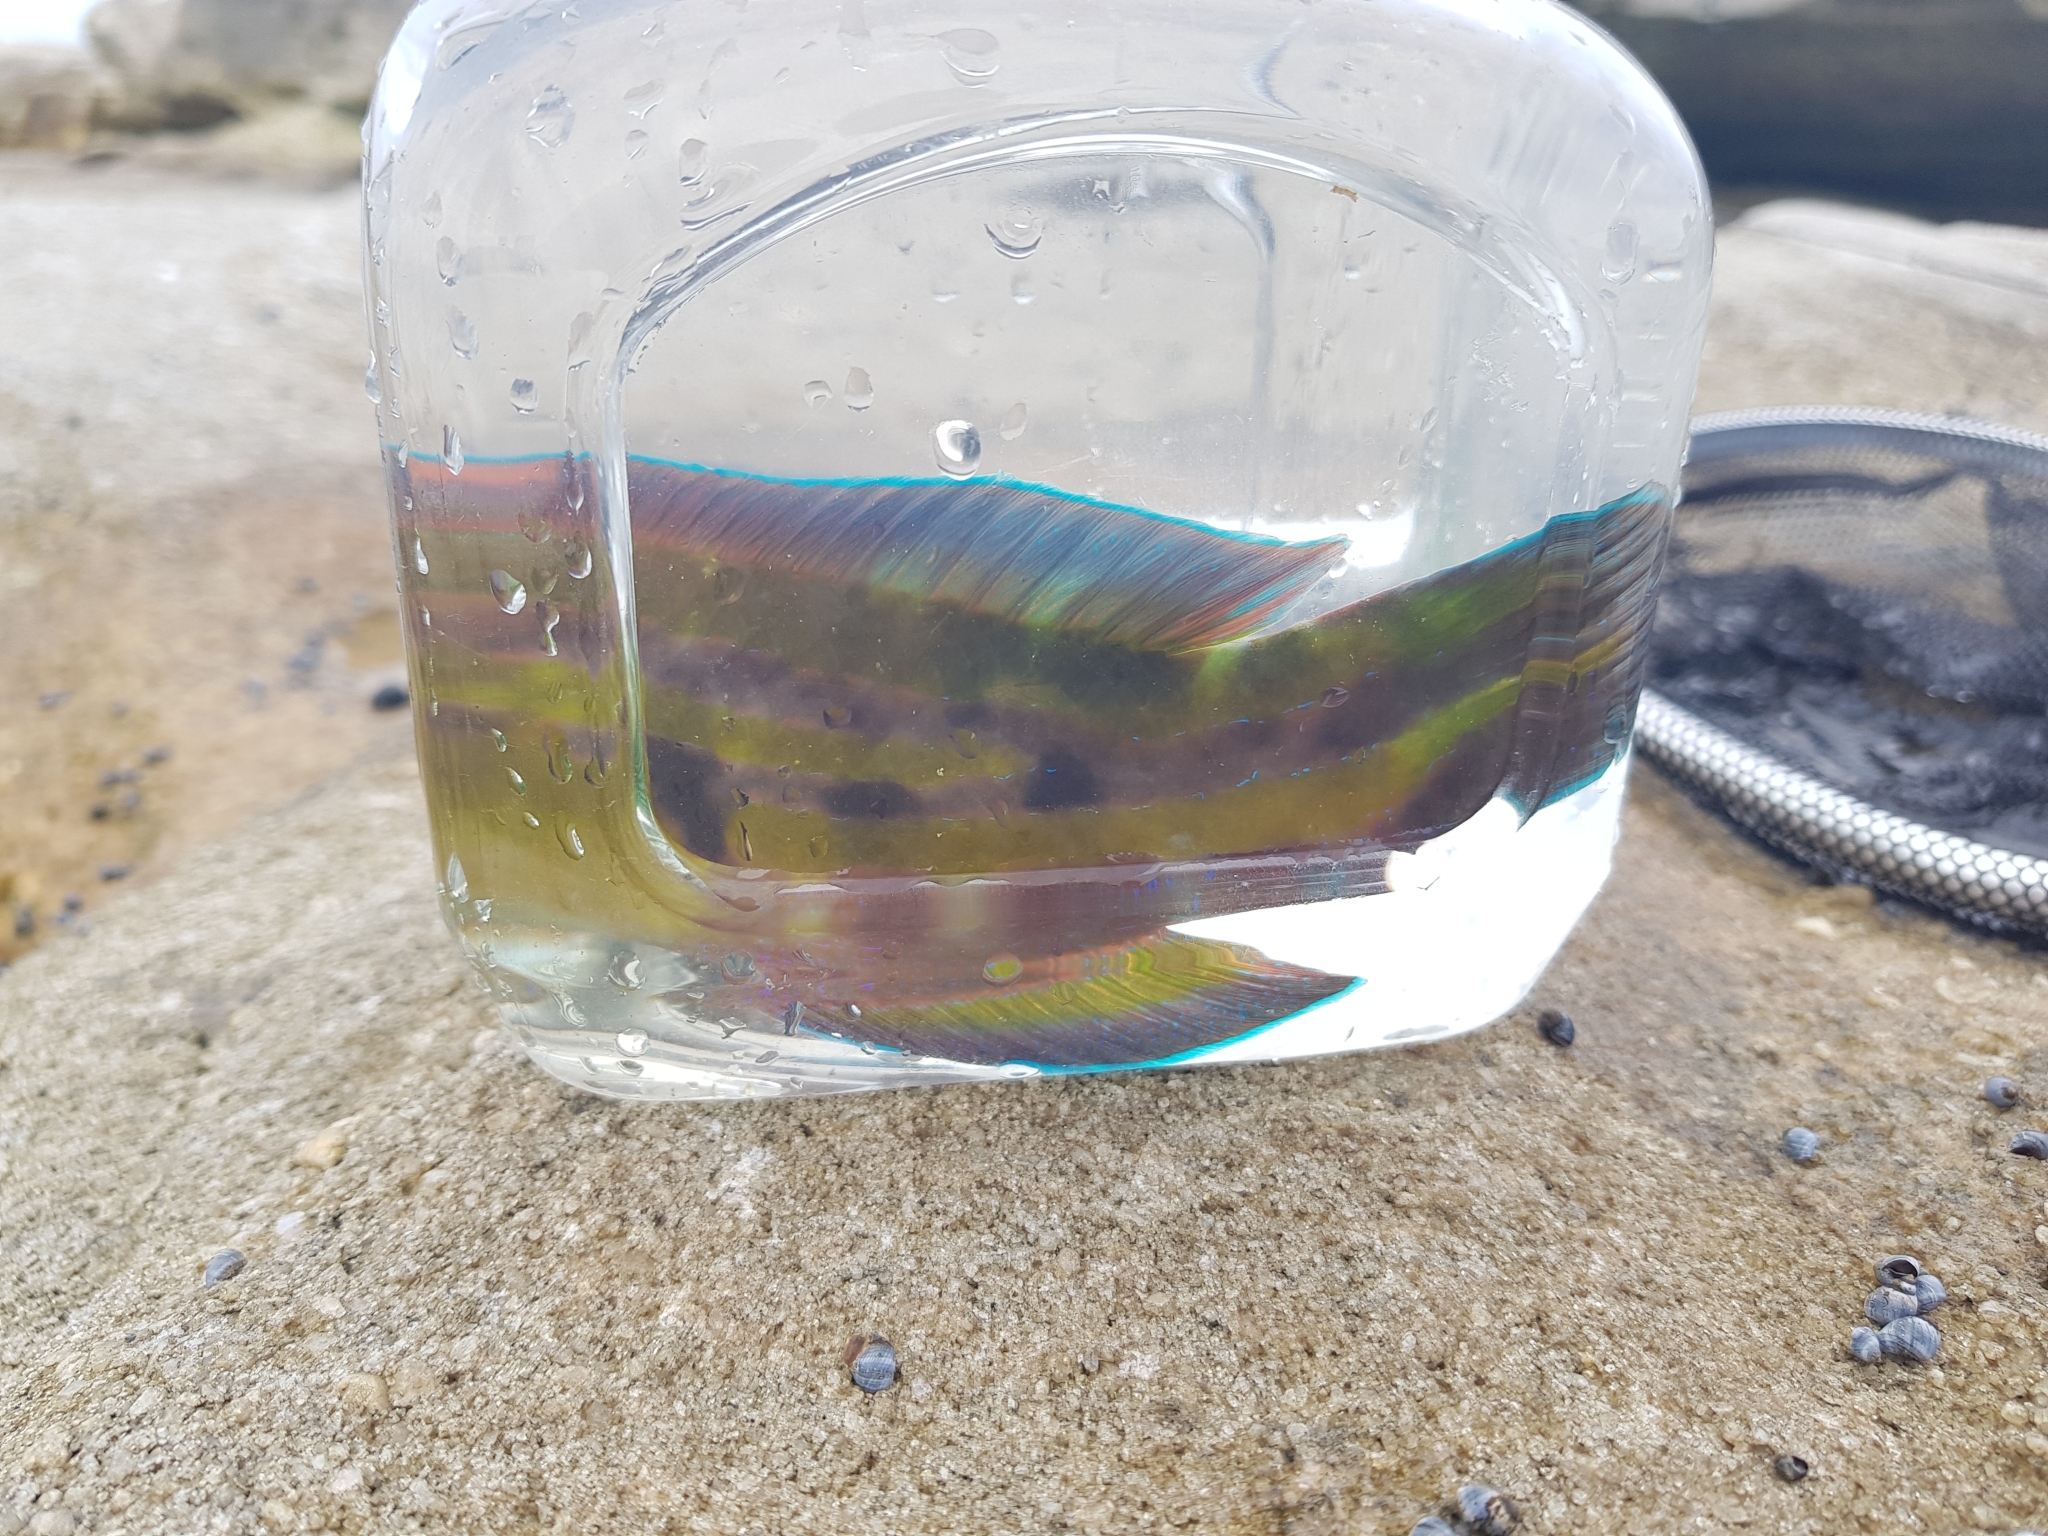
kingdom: Animalia
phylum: Chordata
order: Perciformes
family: Labridae
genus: Pictilabrus
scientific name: Pictilabrus laticlavius
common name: Patrician wrasse
